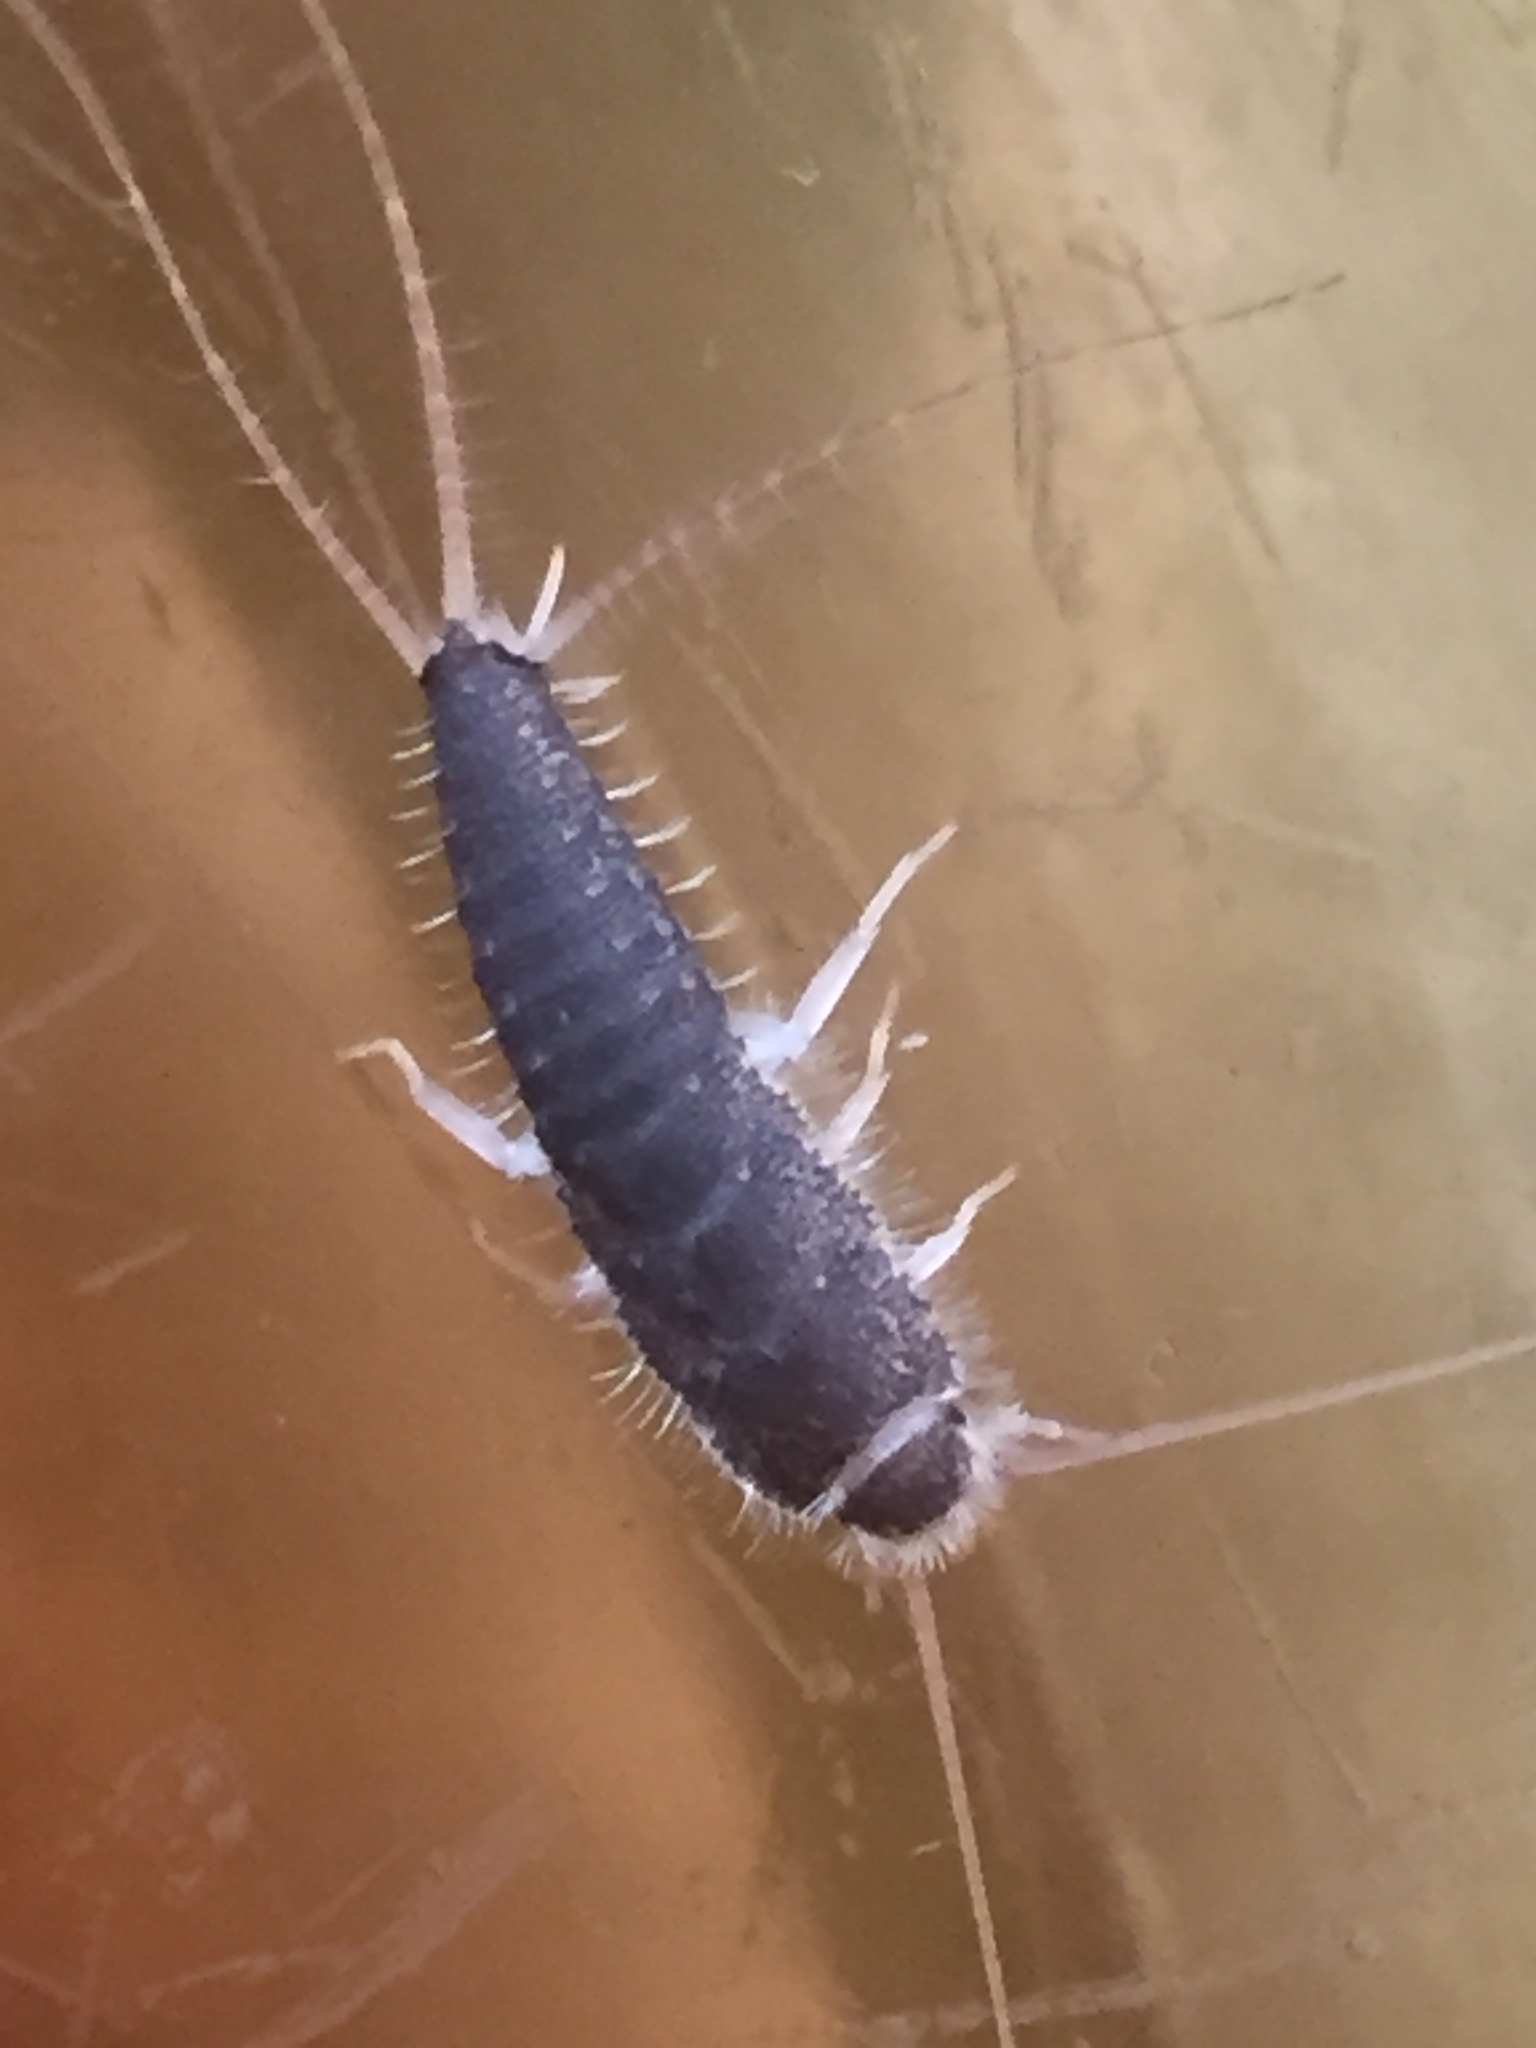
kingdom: Animalia
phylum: Arthropoda
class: Insecta
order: Zygentoma
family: Lepismatidae
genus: Ctenolepisma
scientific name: Ctenolepisma longicaudatum
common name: Silverfish
